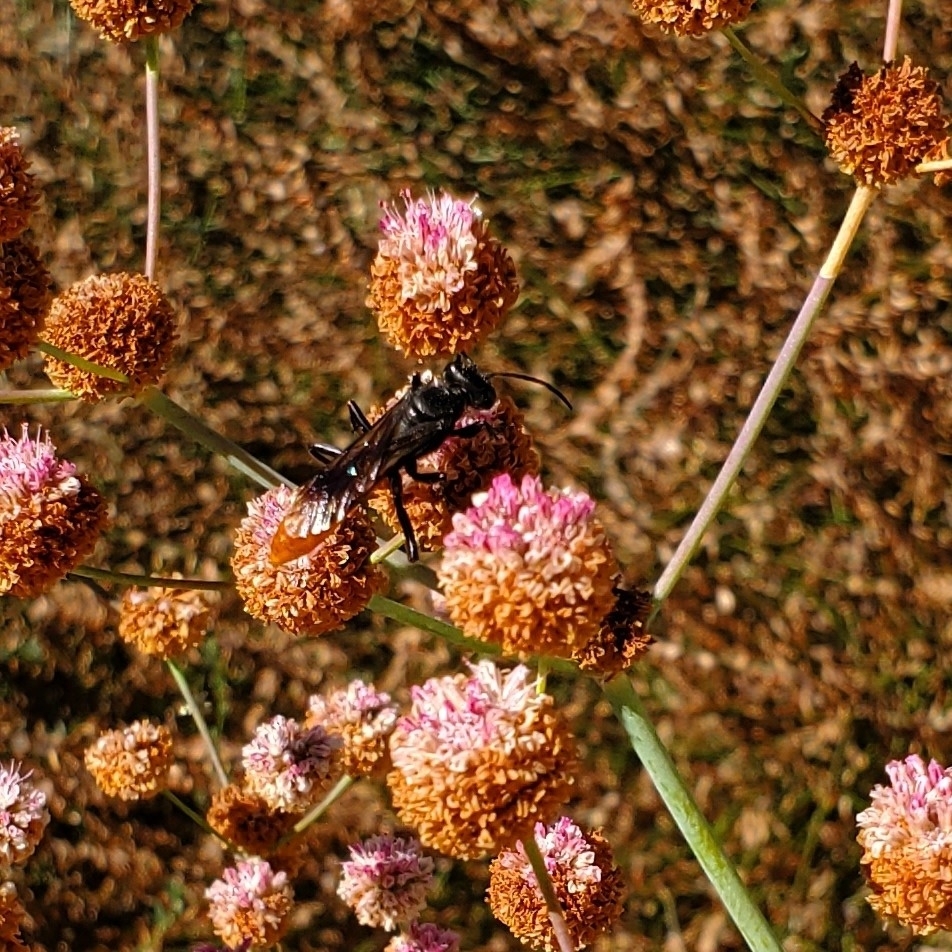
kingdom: Animalia
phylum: Arthropoda
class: Insecta
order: Hymenoptera
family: Sphecidae
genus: Sphex
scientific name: Sphex lucae
